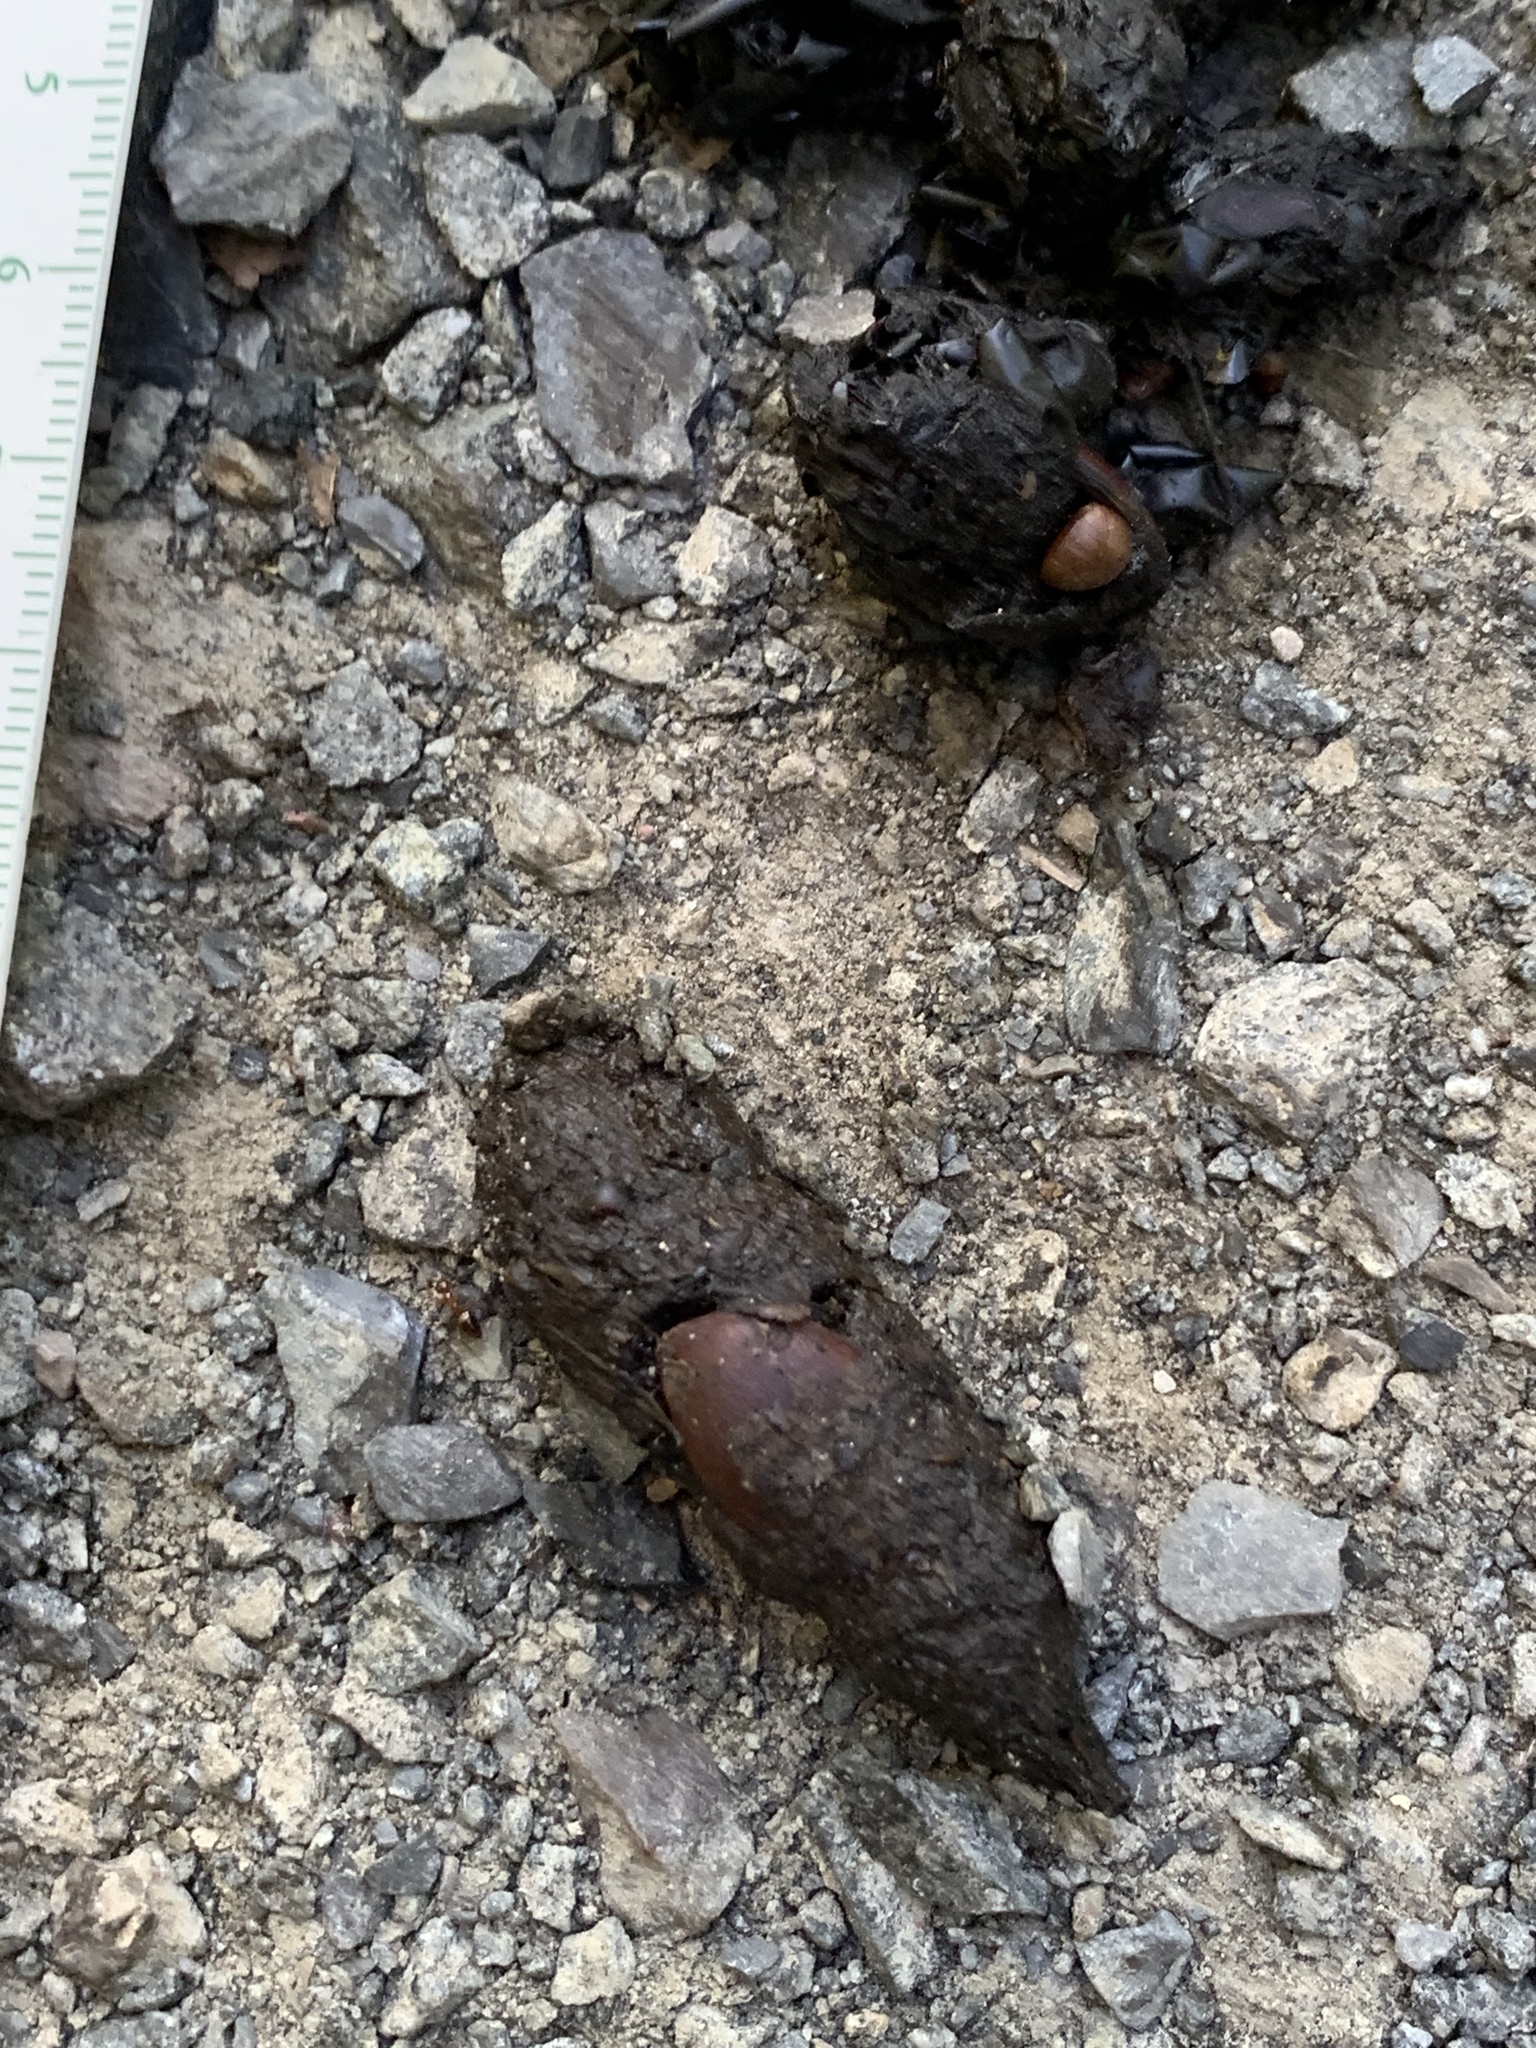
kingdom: Animalia
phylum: Chordata
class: Mammalia
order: Carnivora
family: Procyonidae
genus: Procyon
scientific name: Procyon lotor
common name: Raccoon
